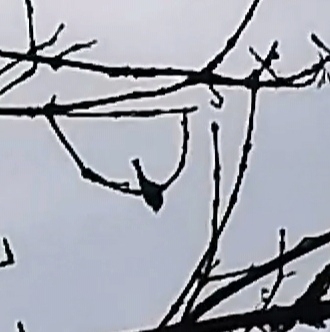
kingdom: Animalia
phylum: Chordata
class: Aves
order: Passeriformes
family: Paridae
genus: Parus
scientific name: Parus major
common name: Great tit
